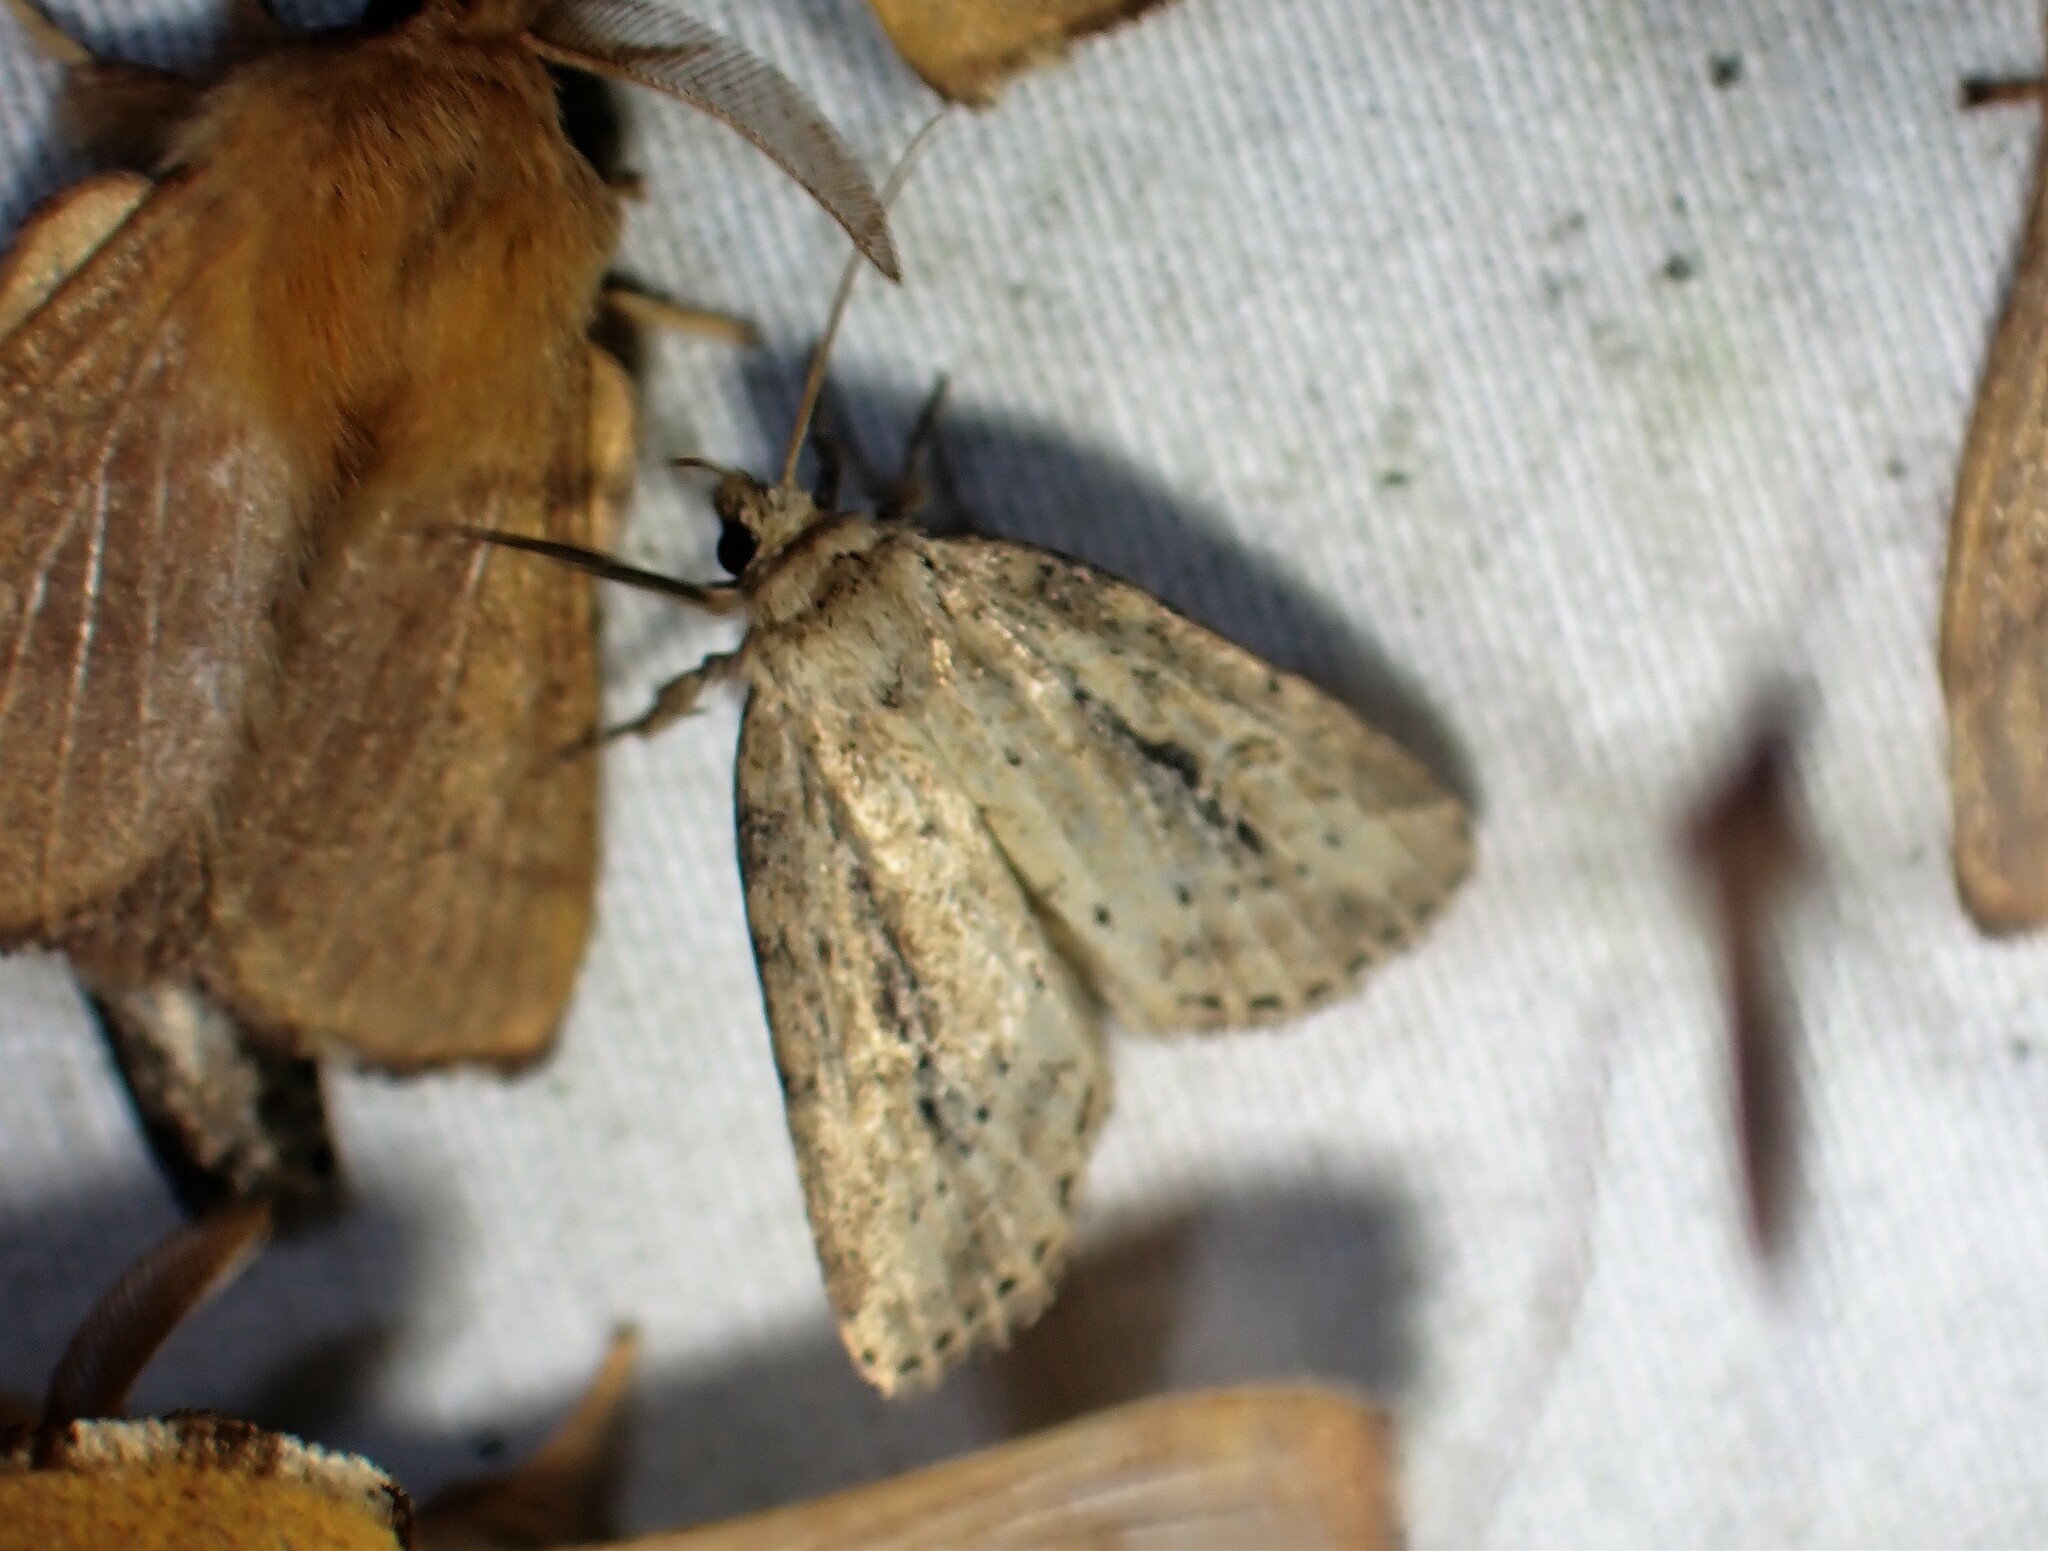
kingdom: Animalia
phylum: Arthropoda
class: Insecta
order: Lepidoptera
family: Noctuidae
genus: Photedes
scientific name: Photedes panatela
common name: Northern cordgrass borer moth
